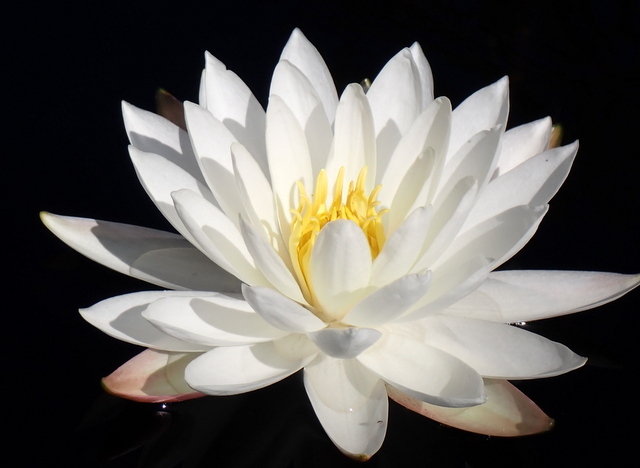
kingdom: Plantae
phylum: Tracheophyta
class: Magnoliopsida
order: Nymphaeales
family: Nymphaeaceae
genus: Nymphaea
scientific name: Nymphaea odorata
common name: Fragrant water-lily
